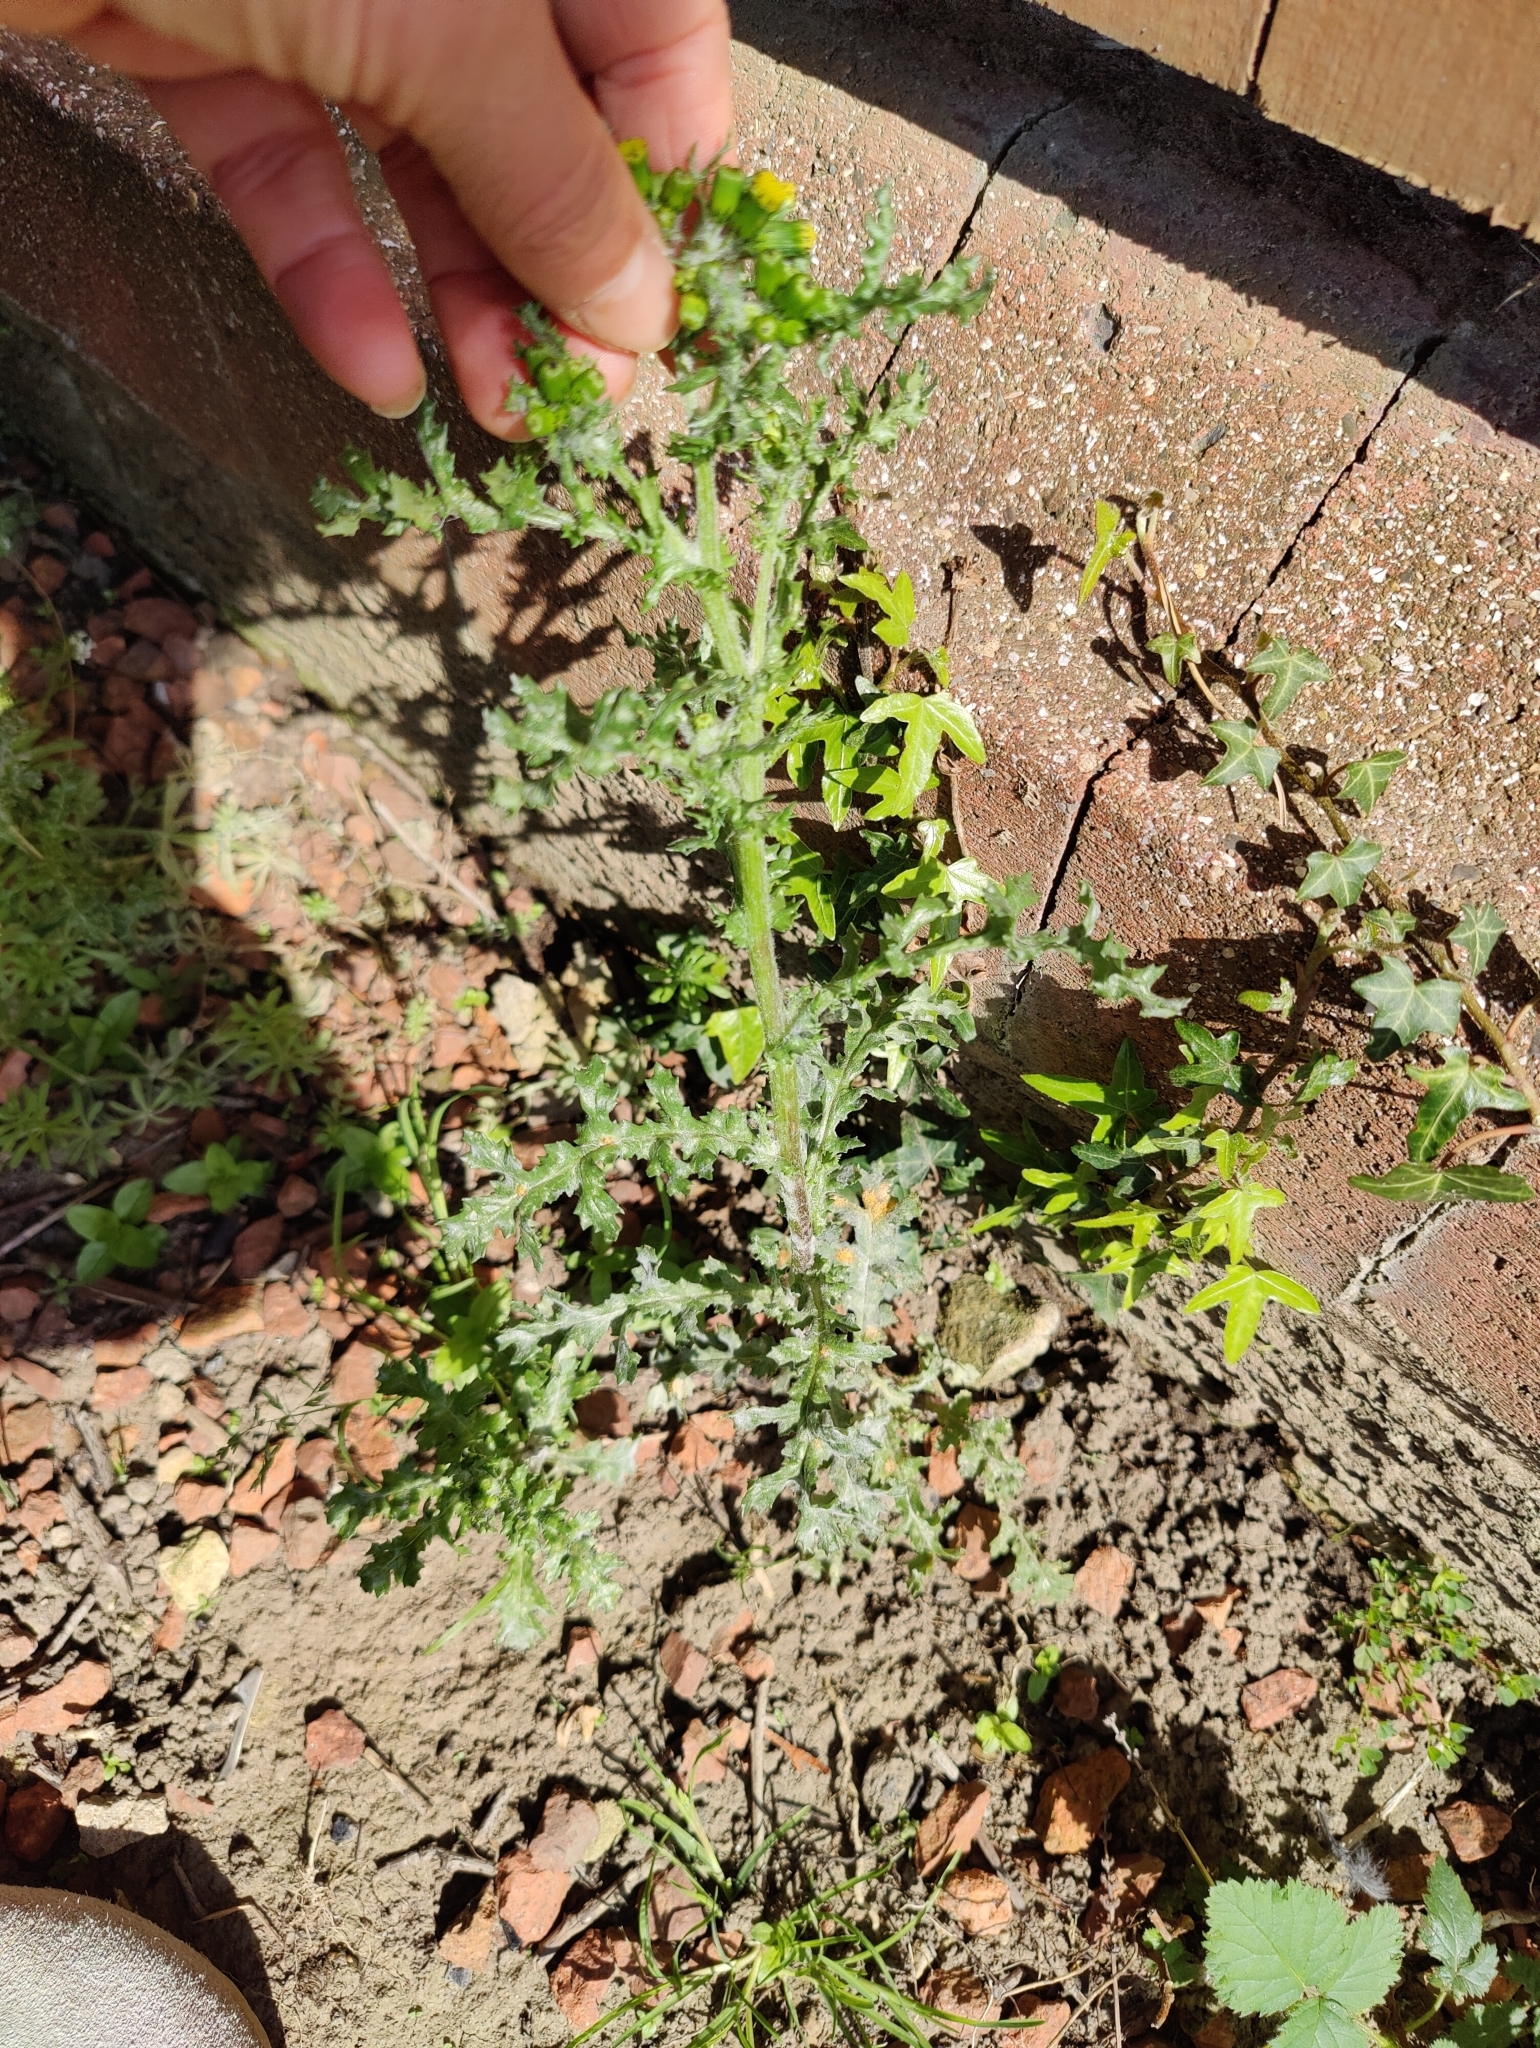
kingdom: Plantae
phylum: Tracheophyta
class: Magnoliopsida
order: Asterales
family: Asteraceae
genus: Senecio
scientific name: Senecio vulgaris
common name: Old-man-in-the-spring
